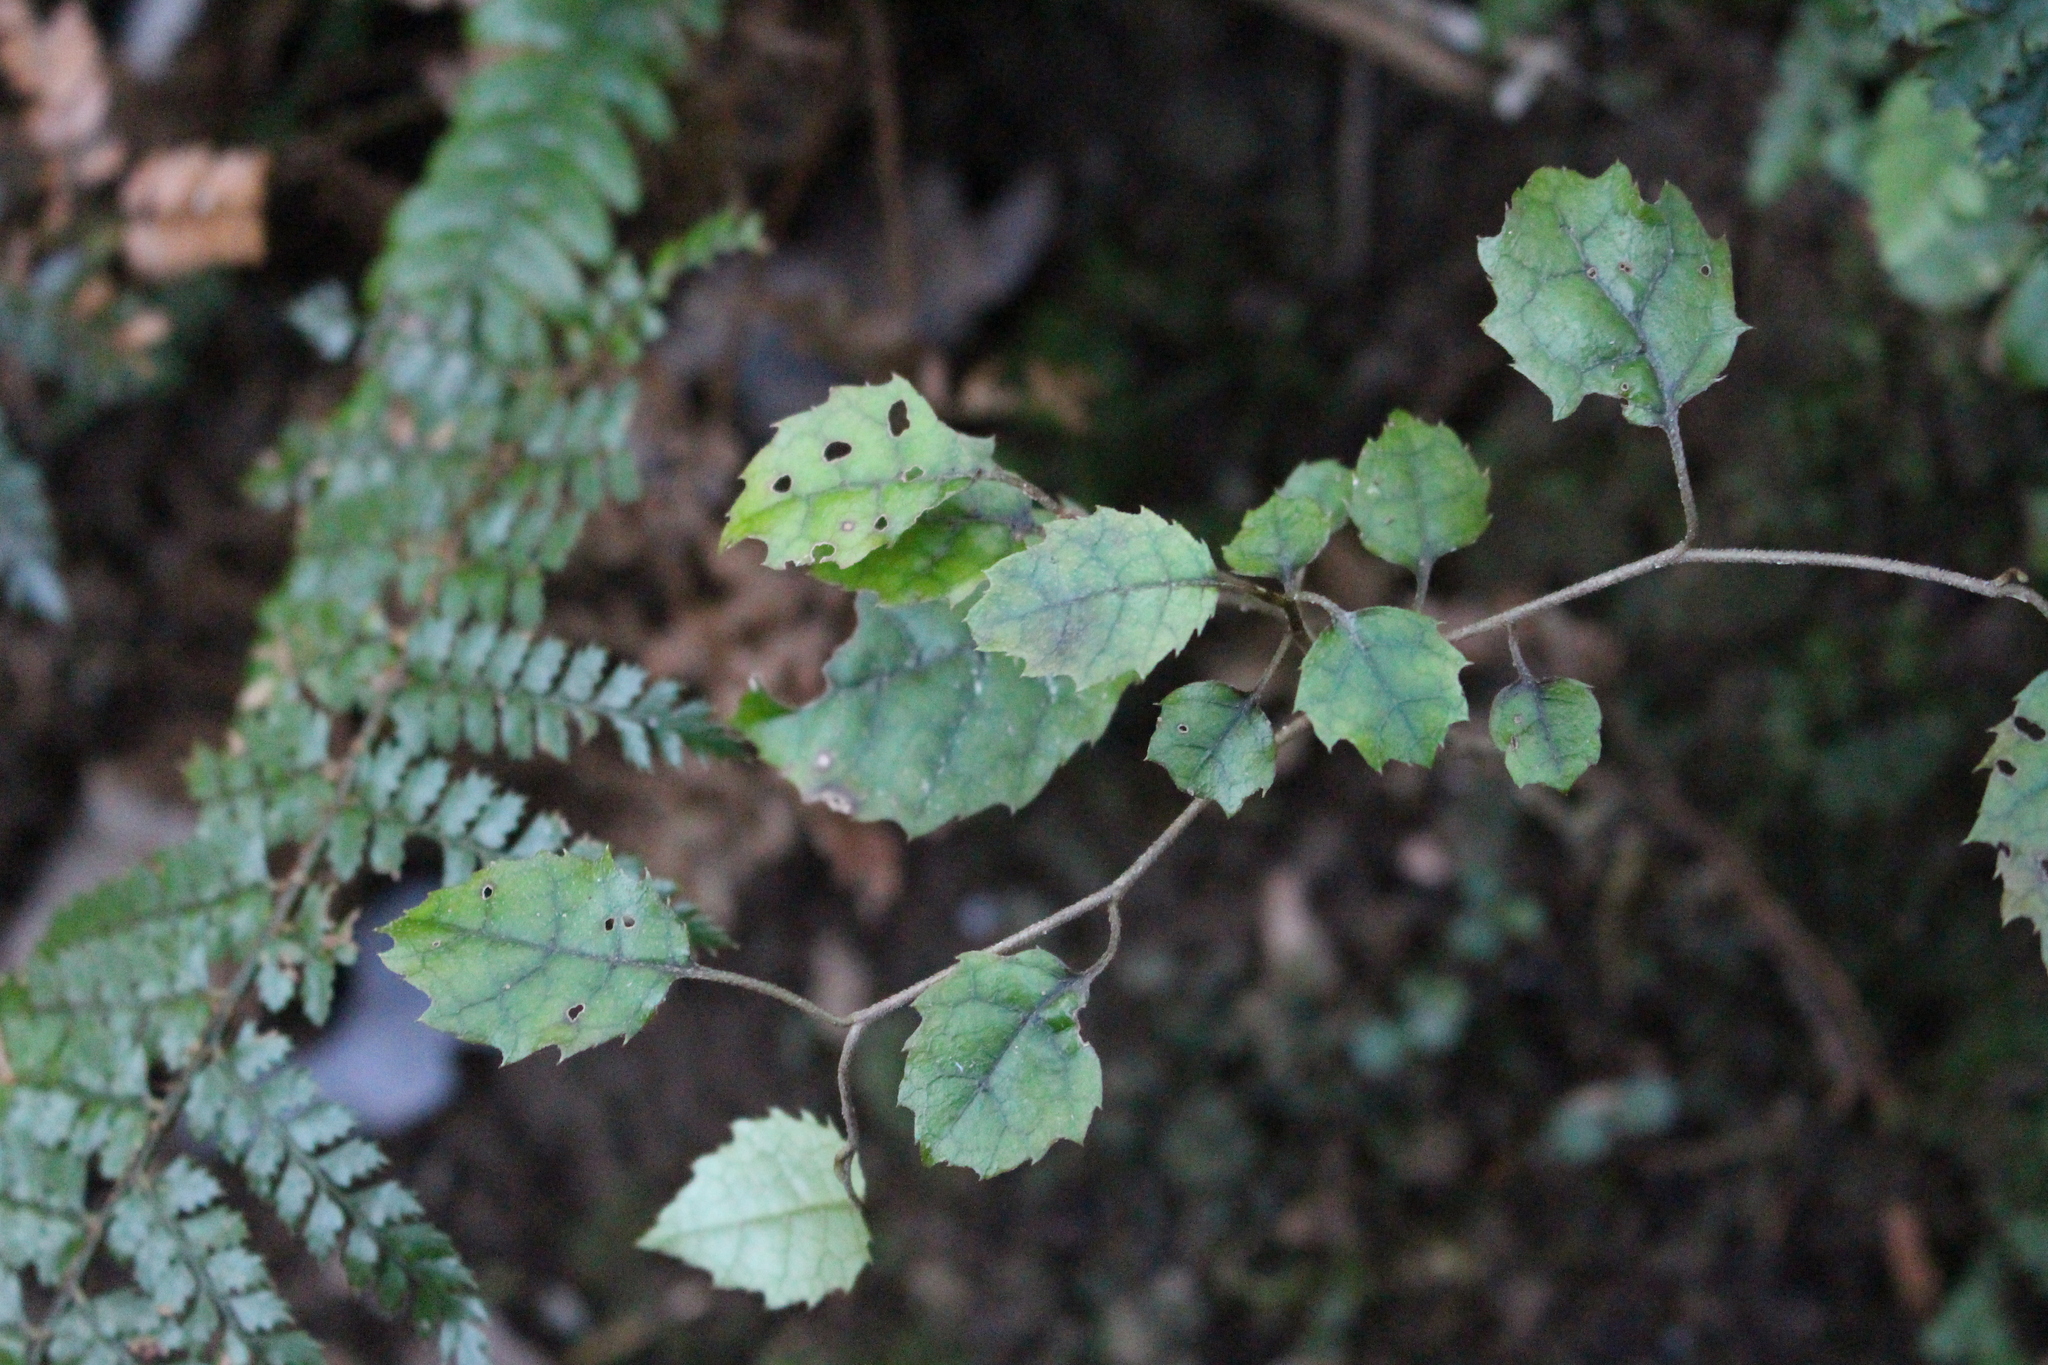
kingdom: Plantae
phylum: Tracheophyta
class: Magnoliopsida
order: Asterales
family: Rousseaceae
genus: Carpodetus
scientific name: Carpodetus serratus
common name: White mapau
